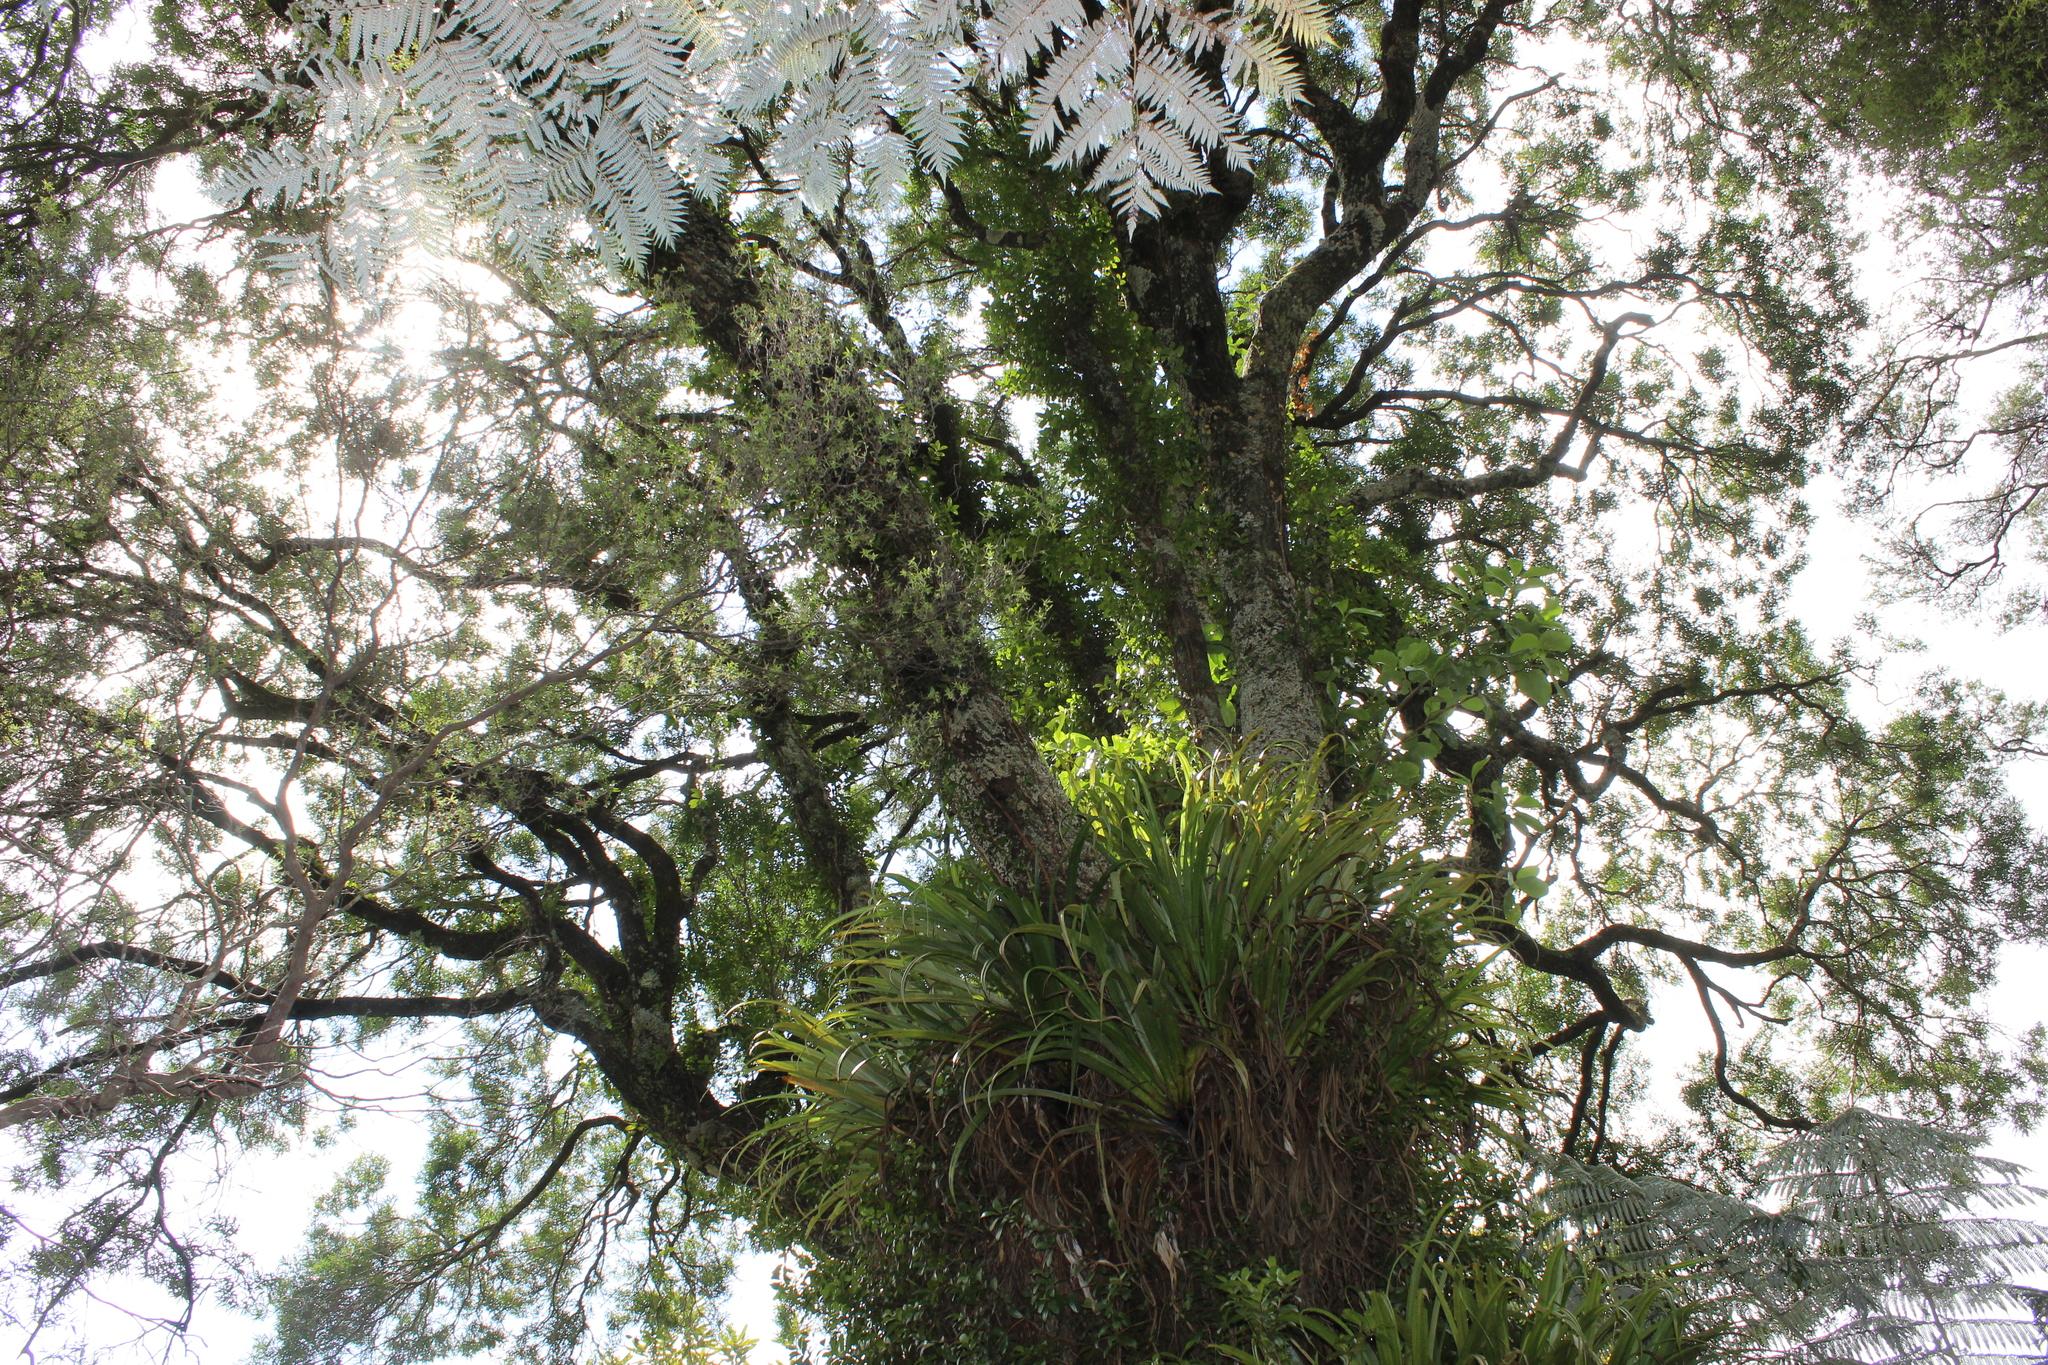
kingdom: Plantae
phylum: Tracheophyta
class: Magnoliopsida
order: Lamiales
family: Oleaceae
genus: Nestegis
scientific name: Nestegis montana
